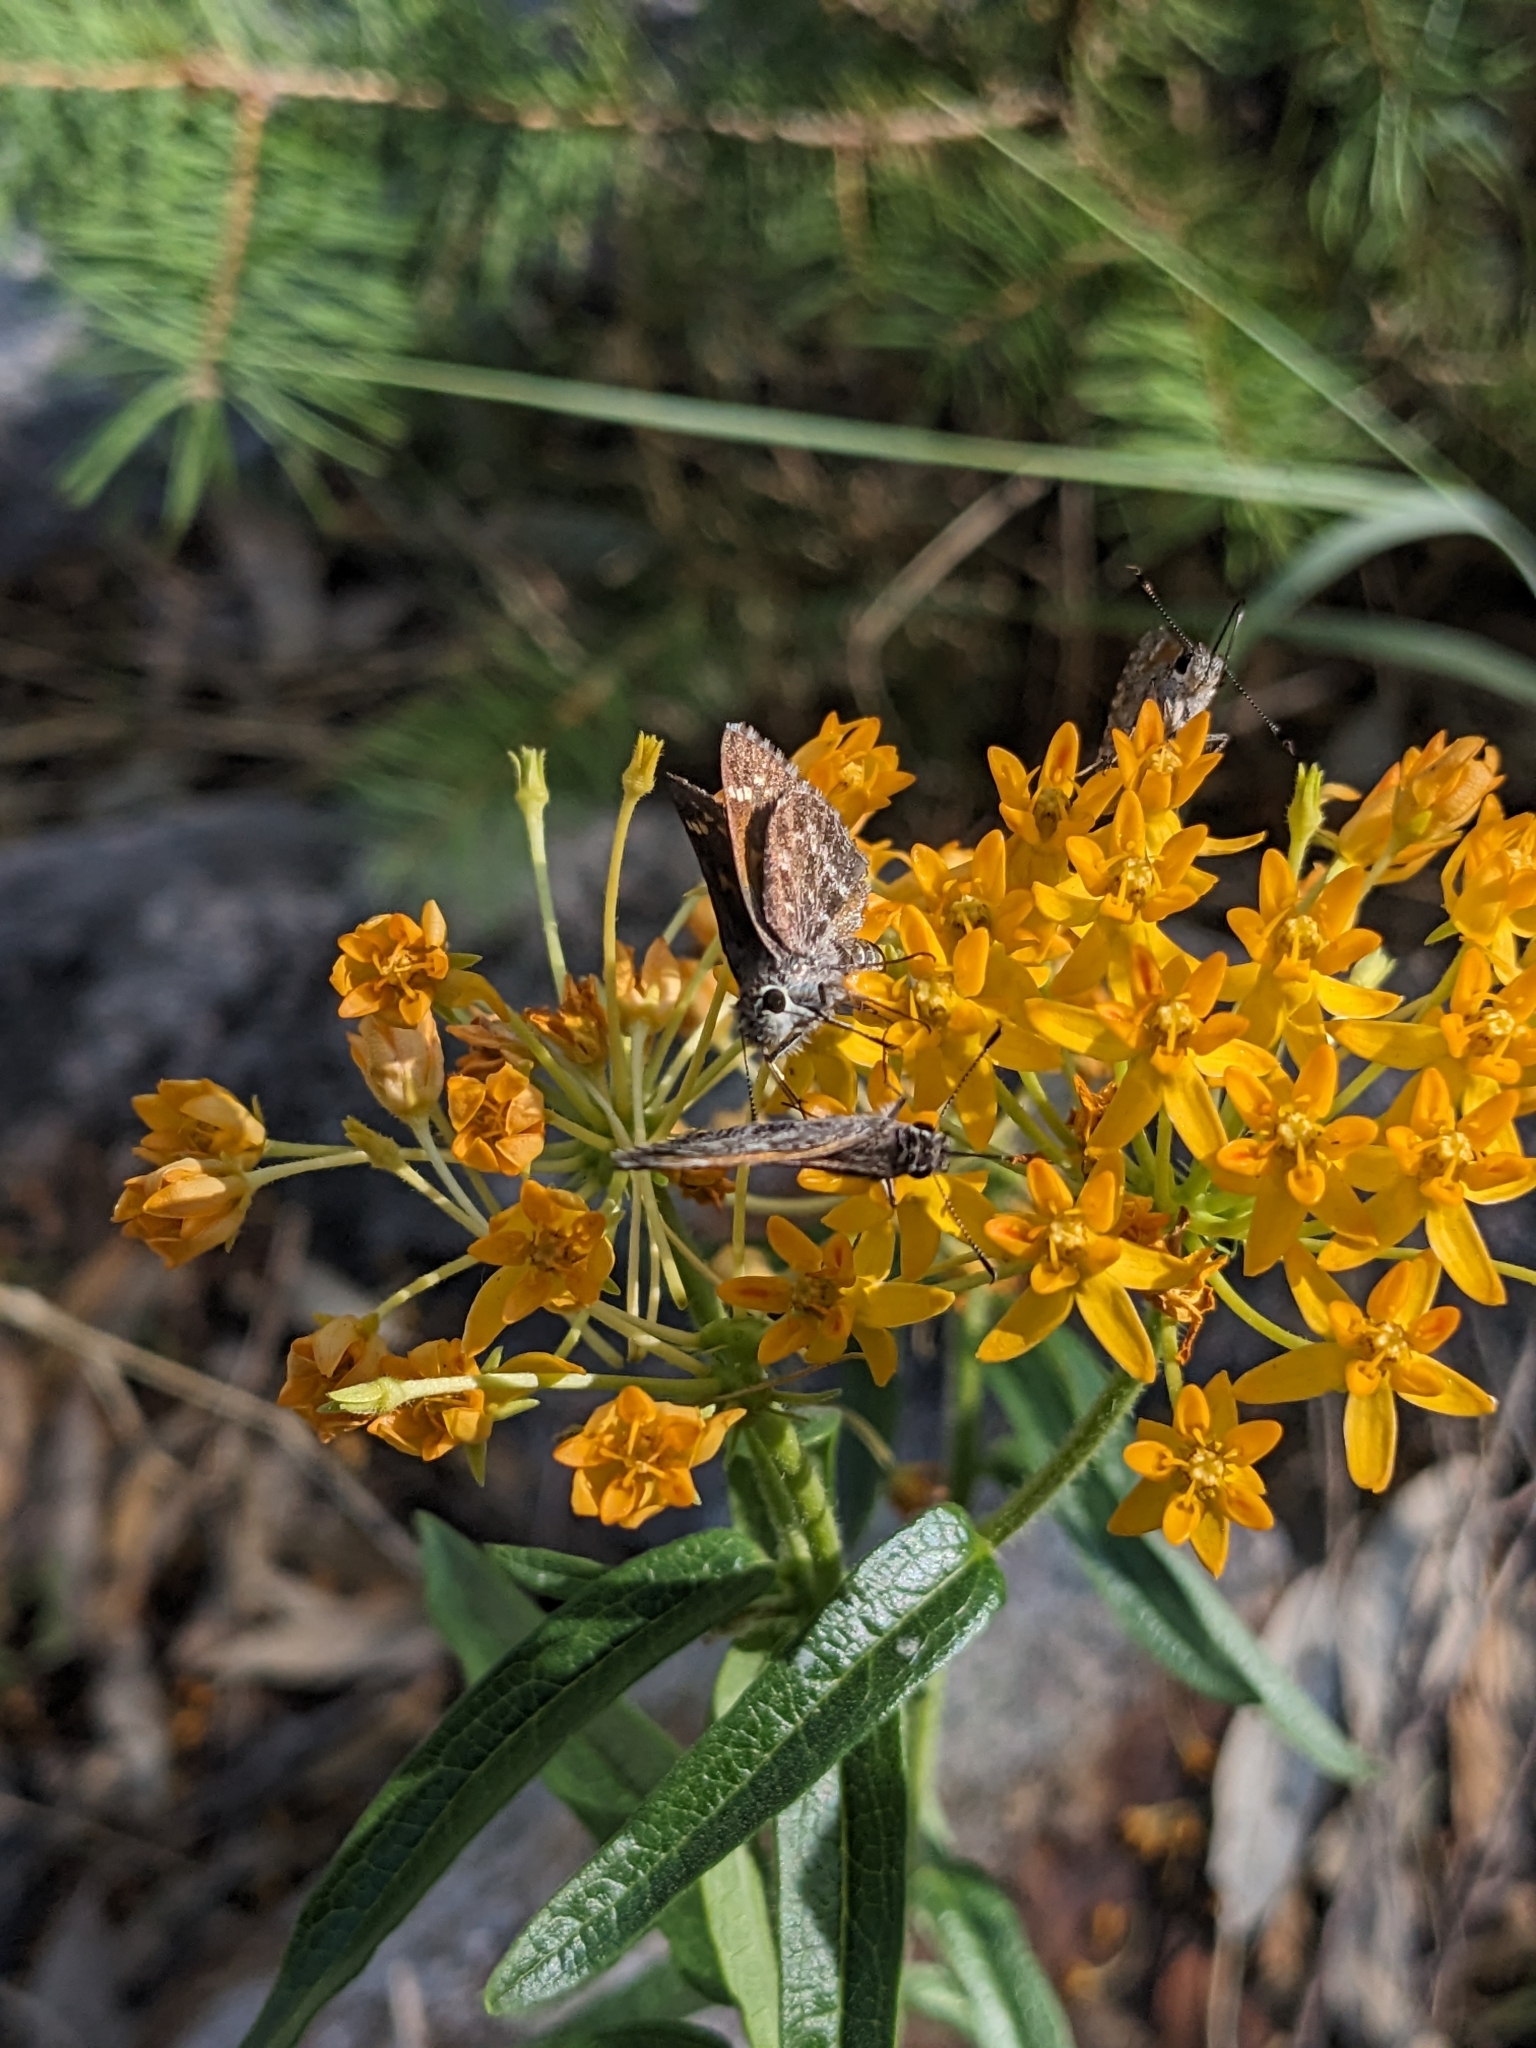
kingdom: Plantae
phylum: Tracheophyta
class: Magnoliopsida
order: Gentianales
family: Apocynaceae
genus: Asclepias
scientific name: Asclepias tuberosa
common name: Butterfly milkweed
